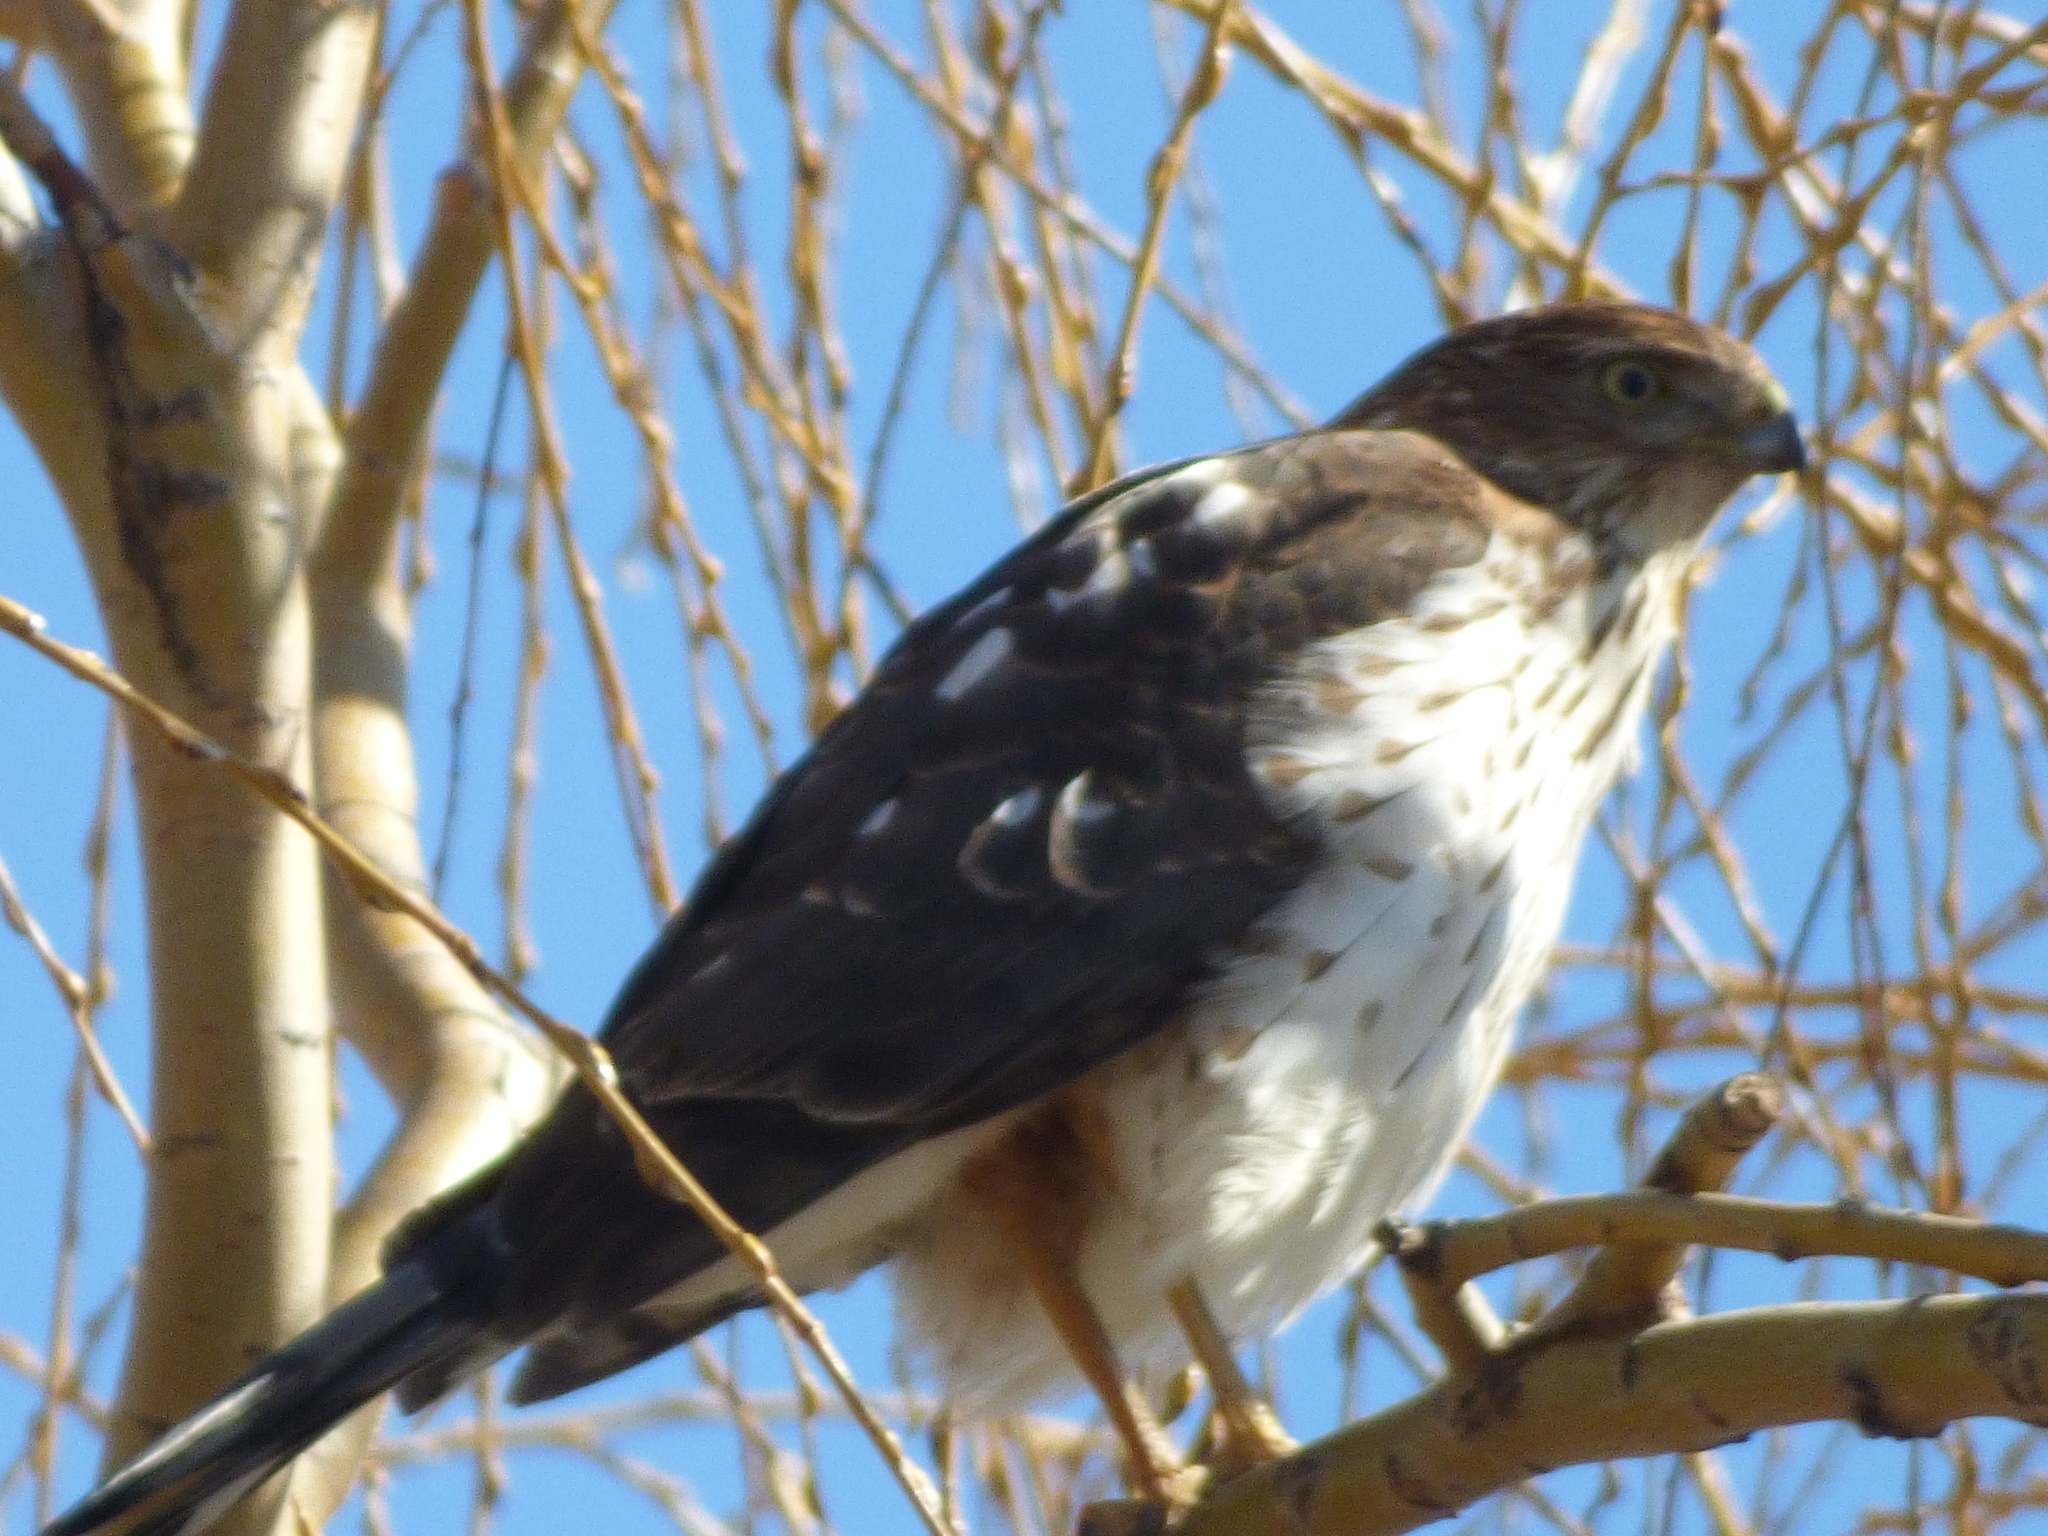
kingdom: Animalia
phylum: Chordata
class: Aves
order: Accipitriformes
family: Accipitridae
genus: Accipiter
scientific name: Accipiter cooperii
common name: Cooper's hawk
